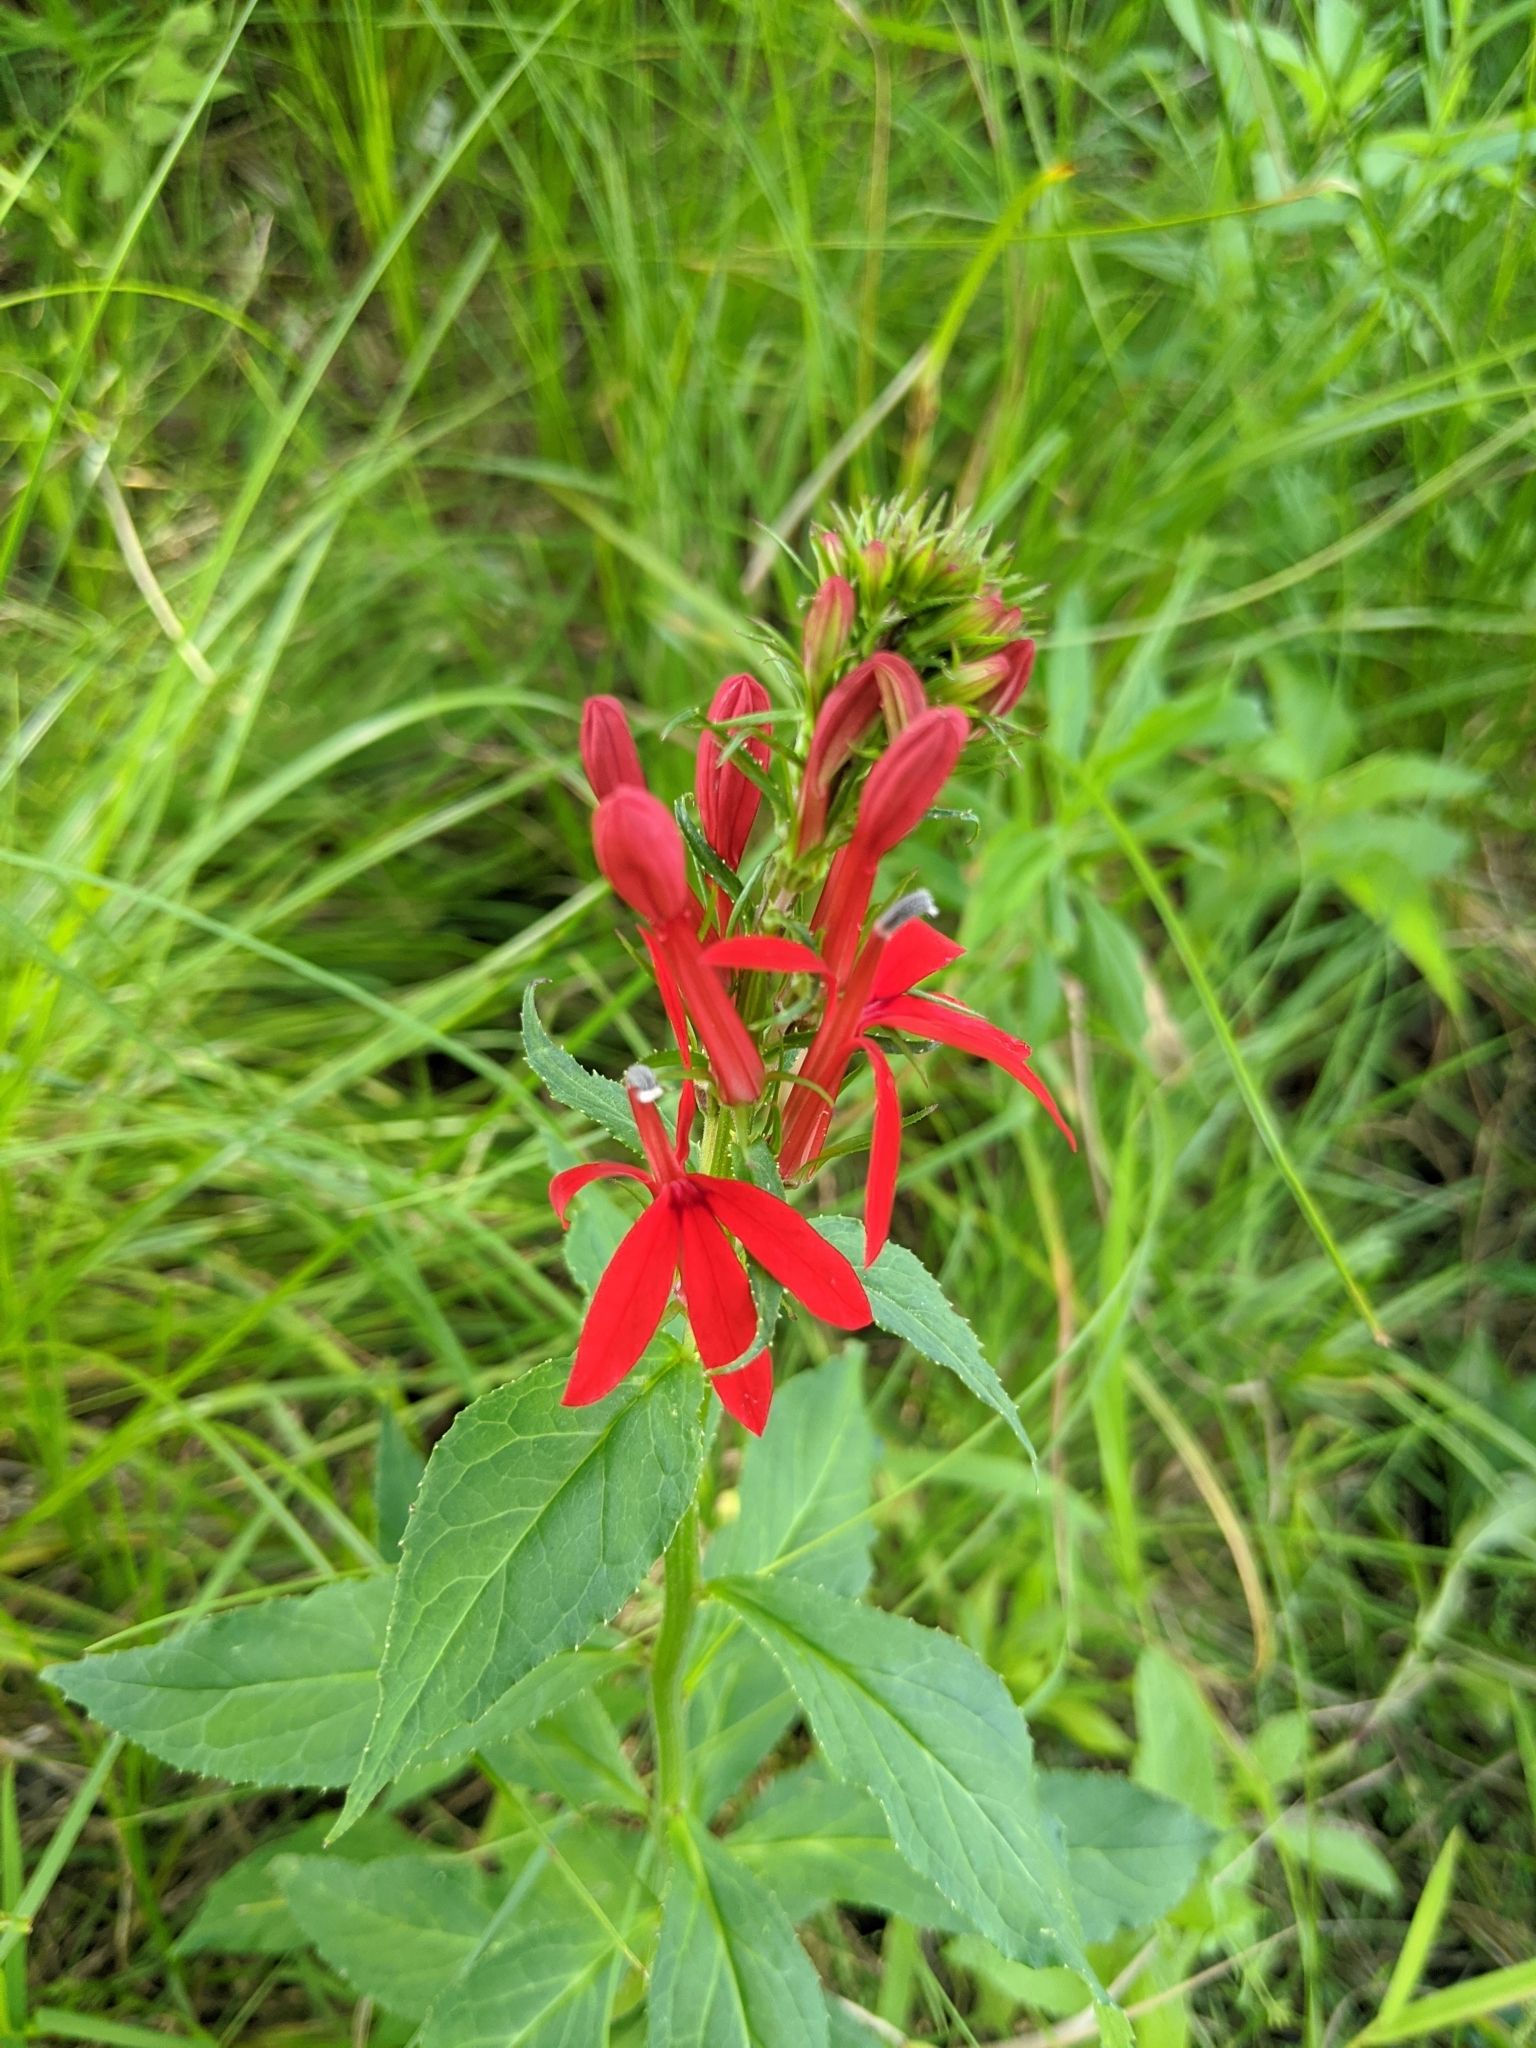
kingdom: Plantae
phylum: Tracheophyta
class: Magnoliopsida
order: Asterales
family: Campanulaceae
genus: Lobelia
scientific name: Lobelia cardinalis
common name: Cardinal flower
